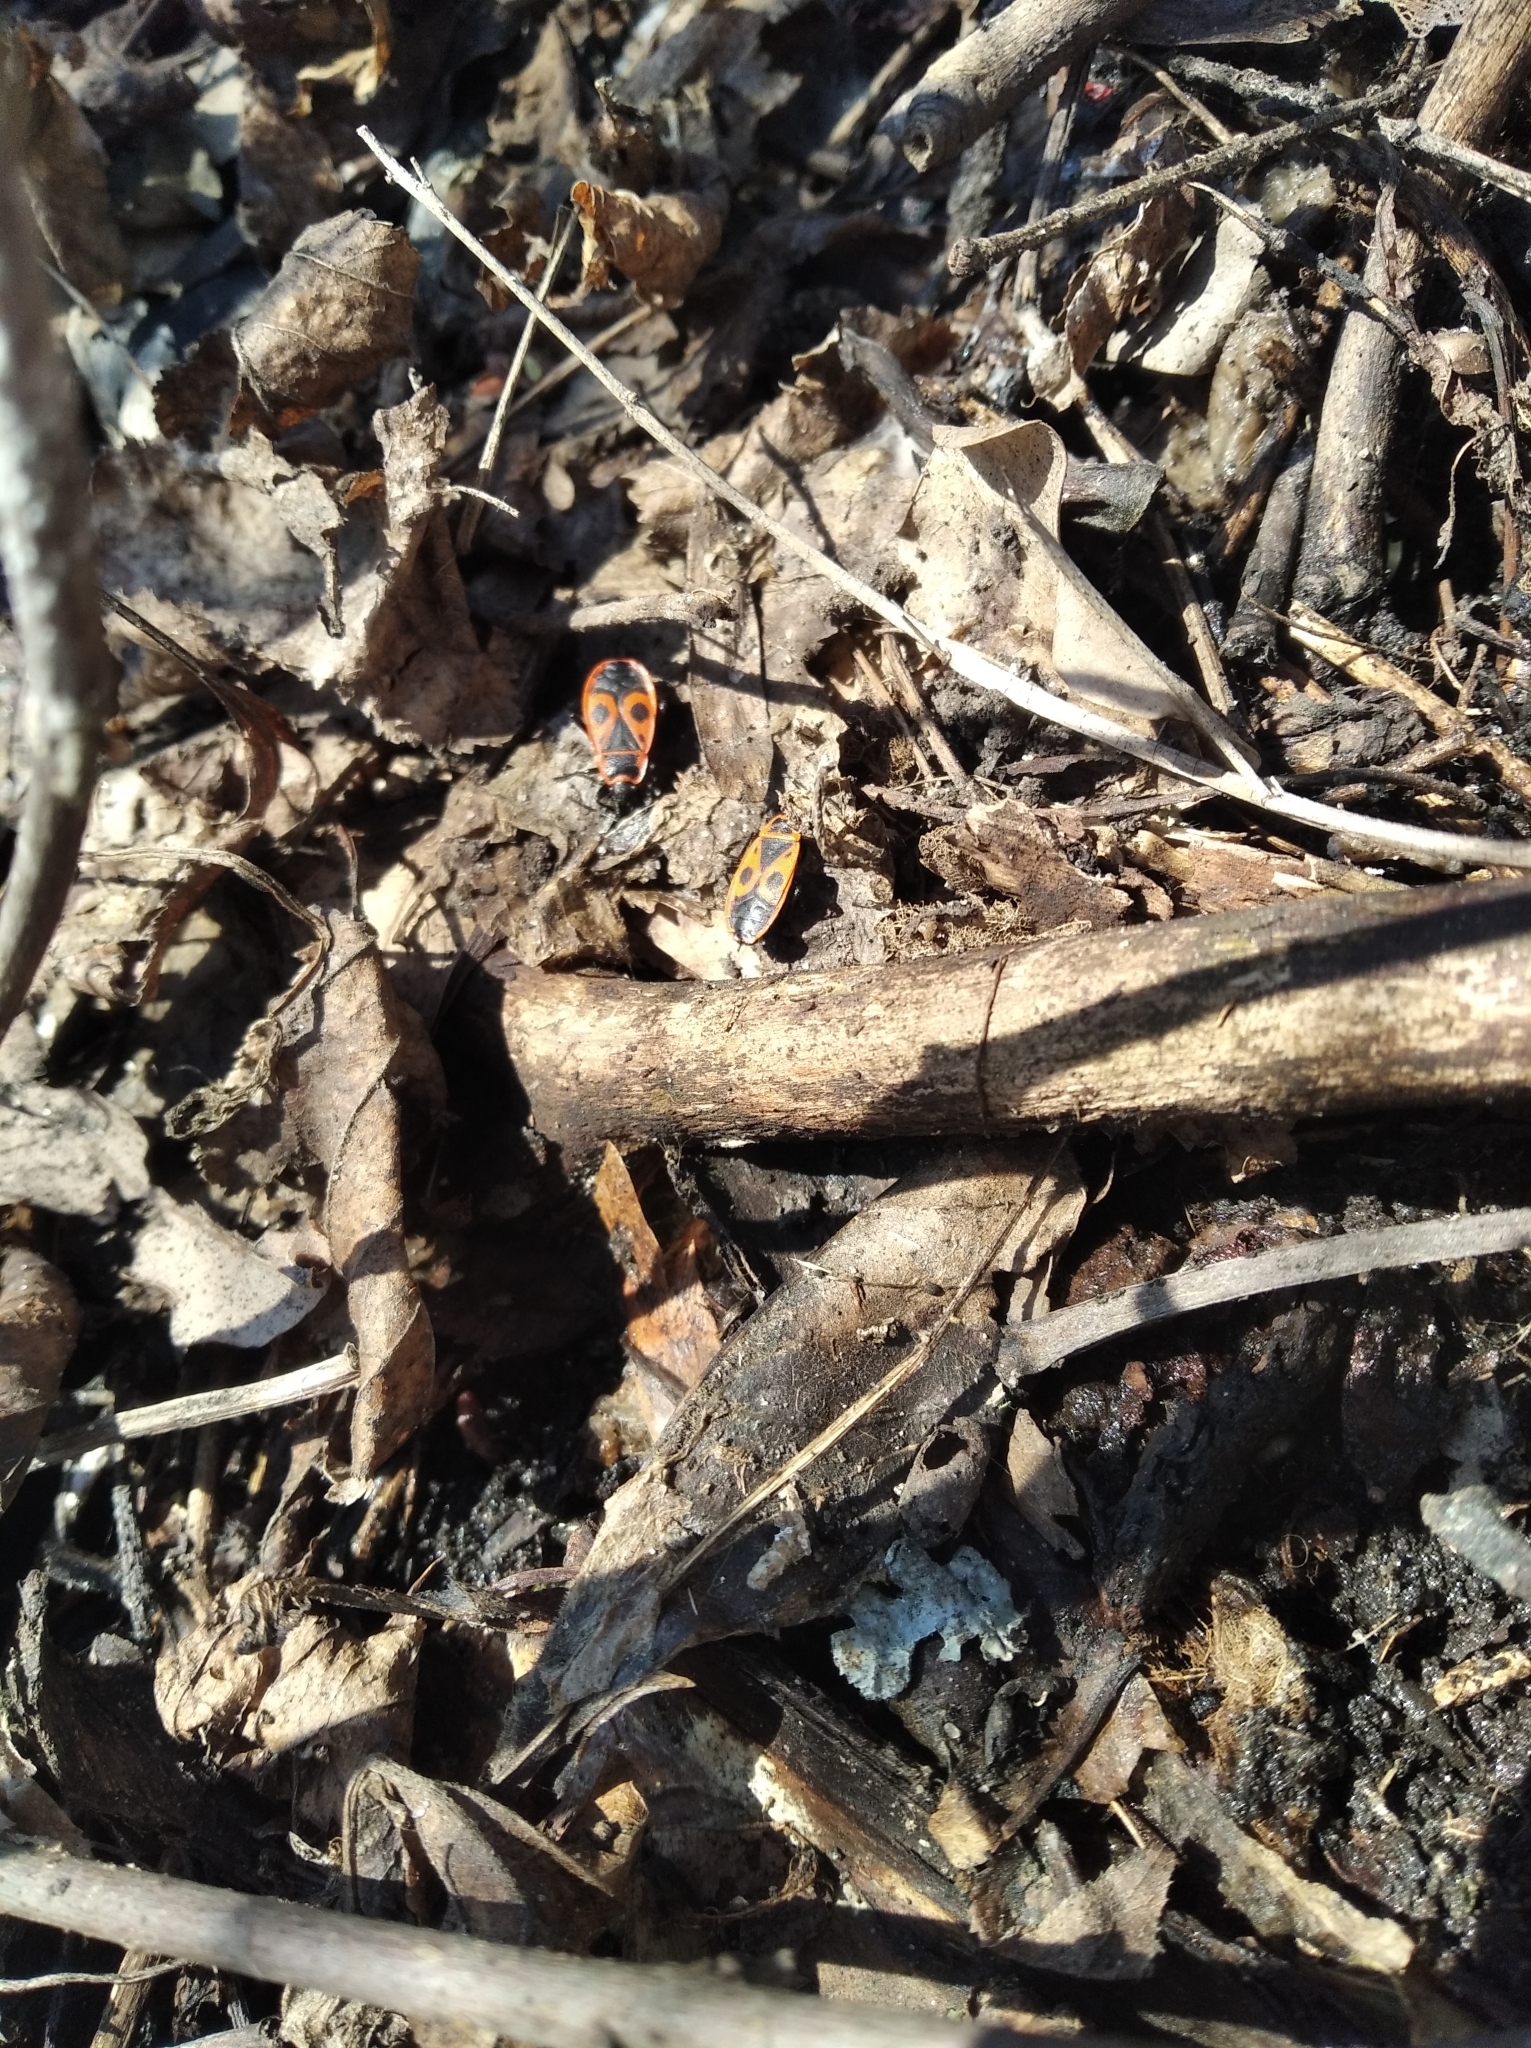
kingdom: Animalia
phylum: Arthropoda
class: Insecta
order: Hemiptera
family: Pyrrhocoridae
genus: Pyrrhocoris
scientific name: Pyrrhocoris apterus
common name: Firebug
